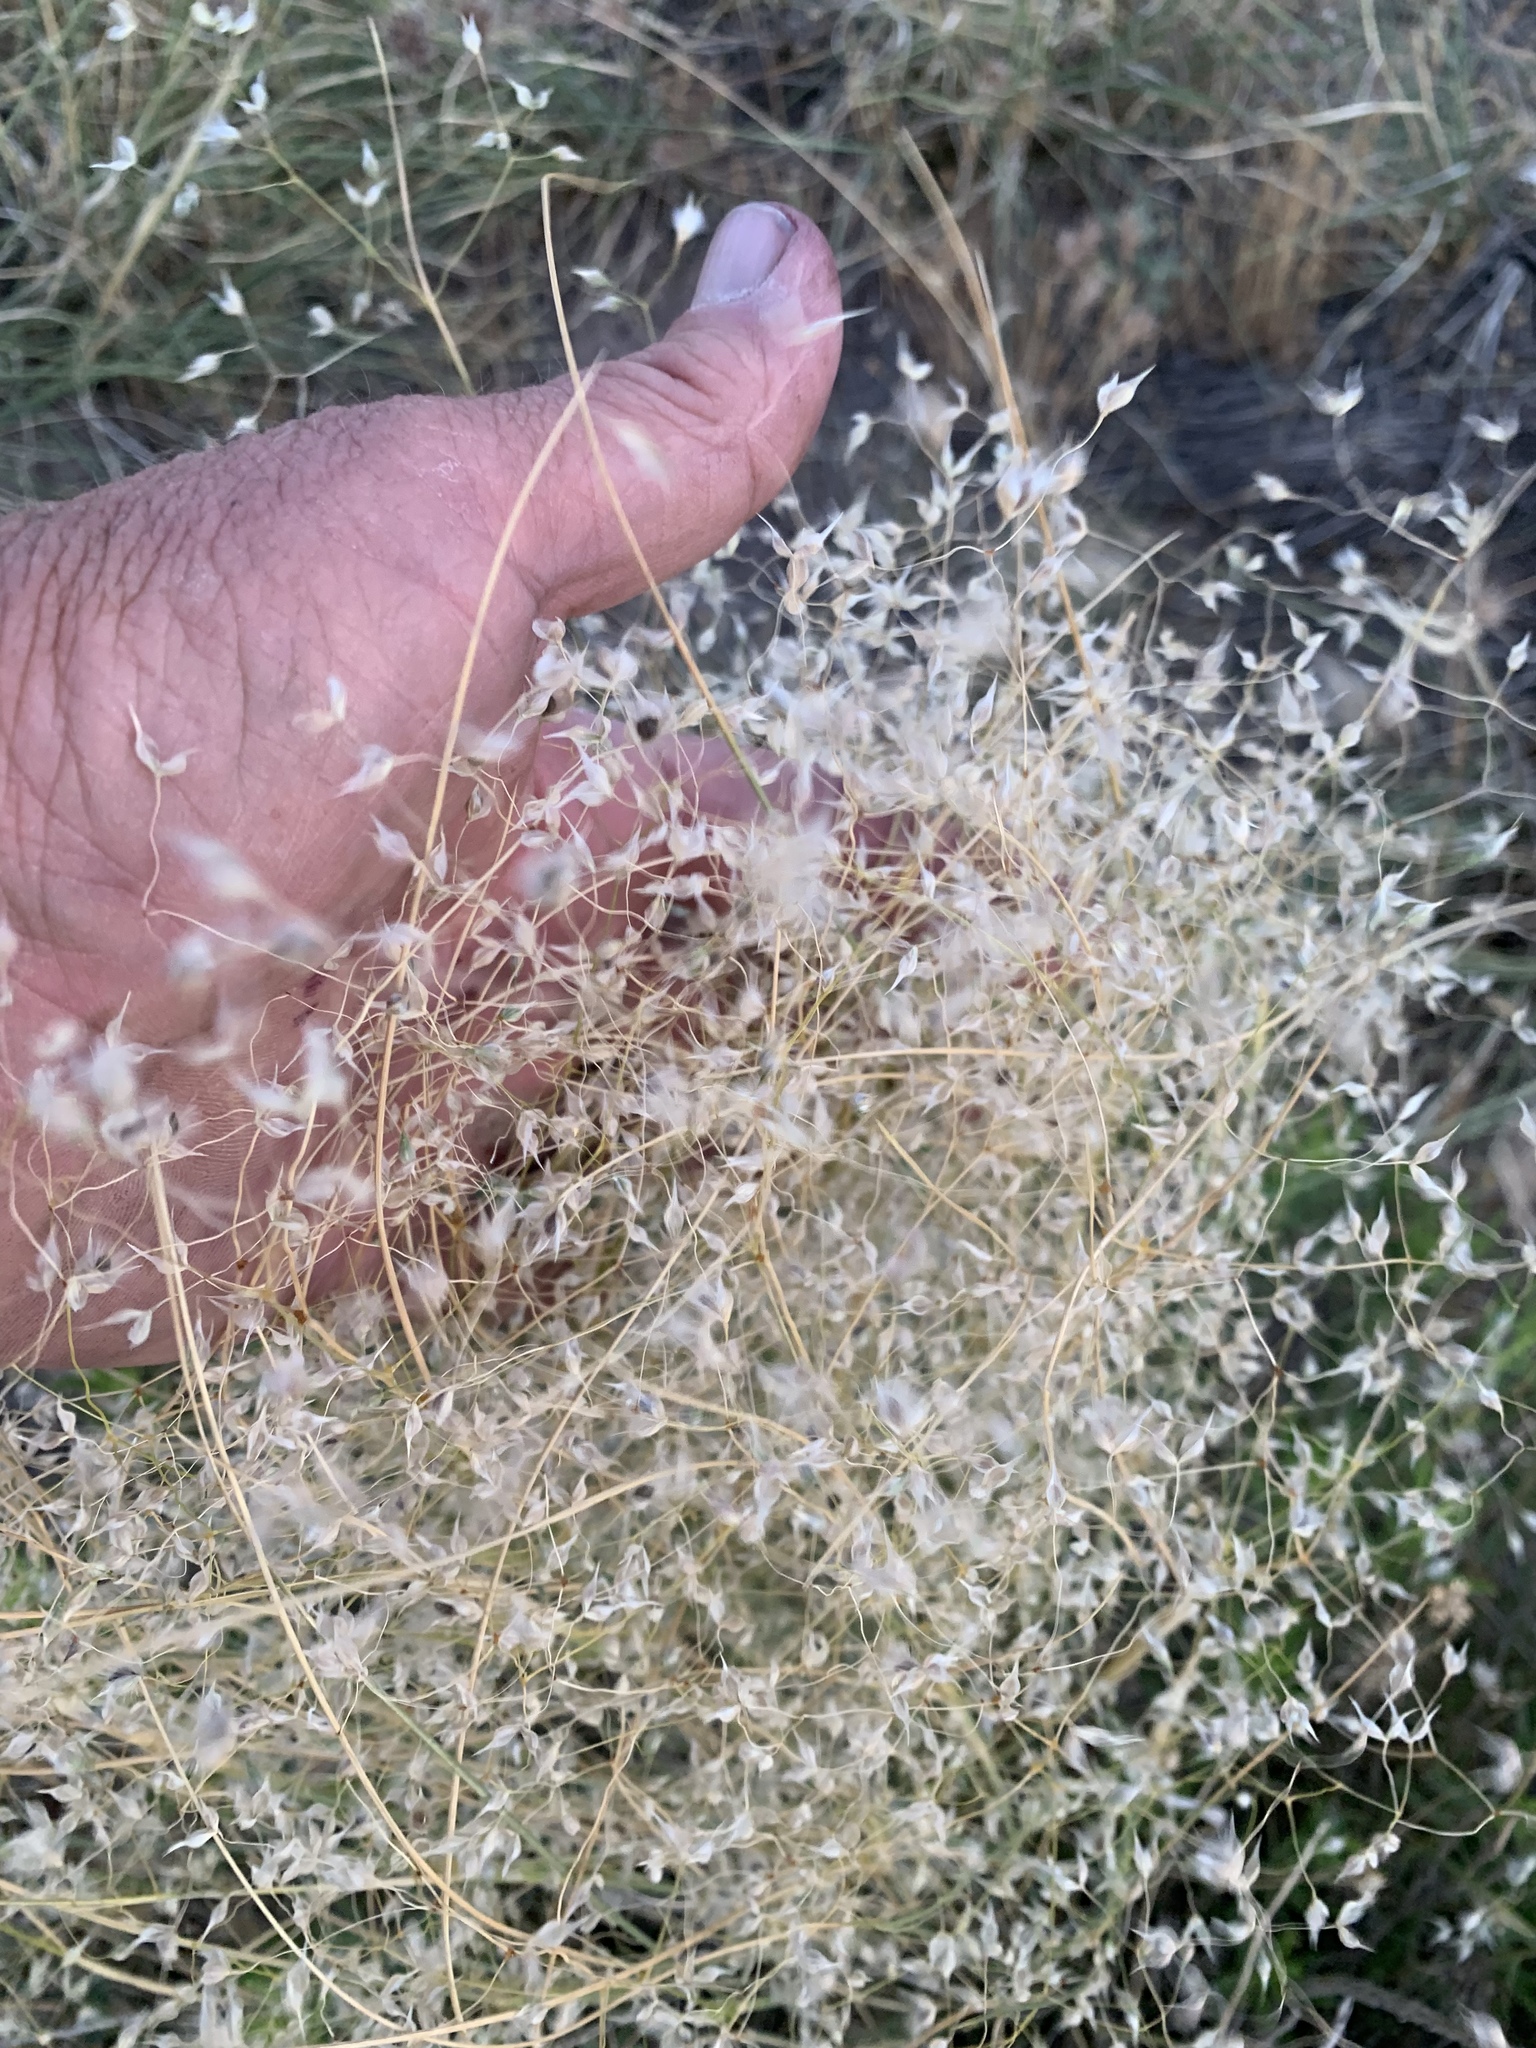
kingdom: Plantae
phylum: Tracheophyta
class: Liliopsida
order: Poales
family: Poaceae
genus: Eriocoma
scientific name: Eriocoma hymenoides
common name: Indian mountain ricegrass
